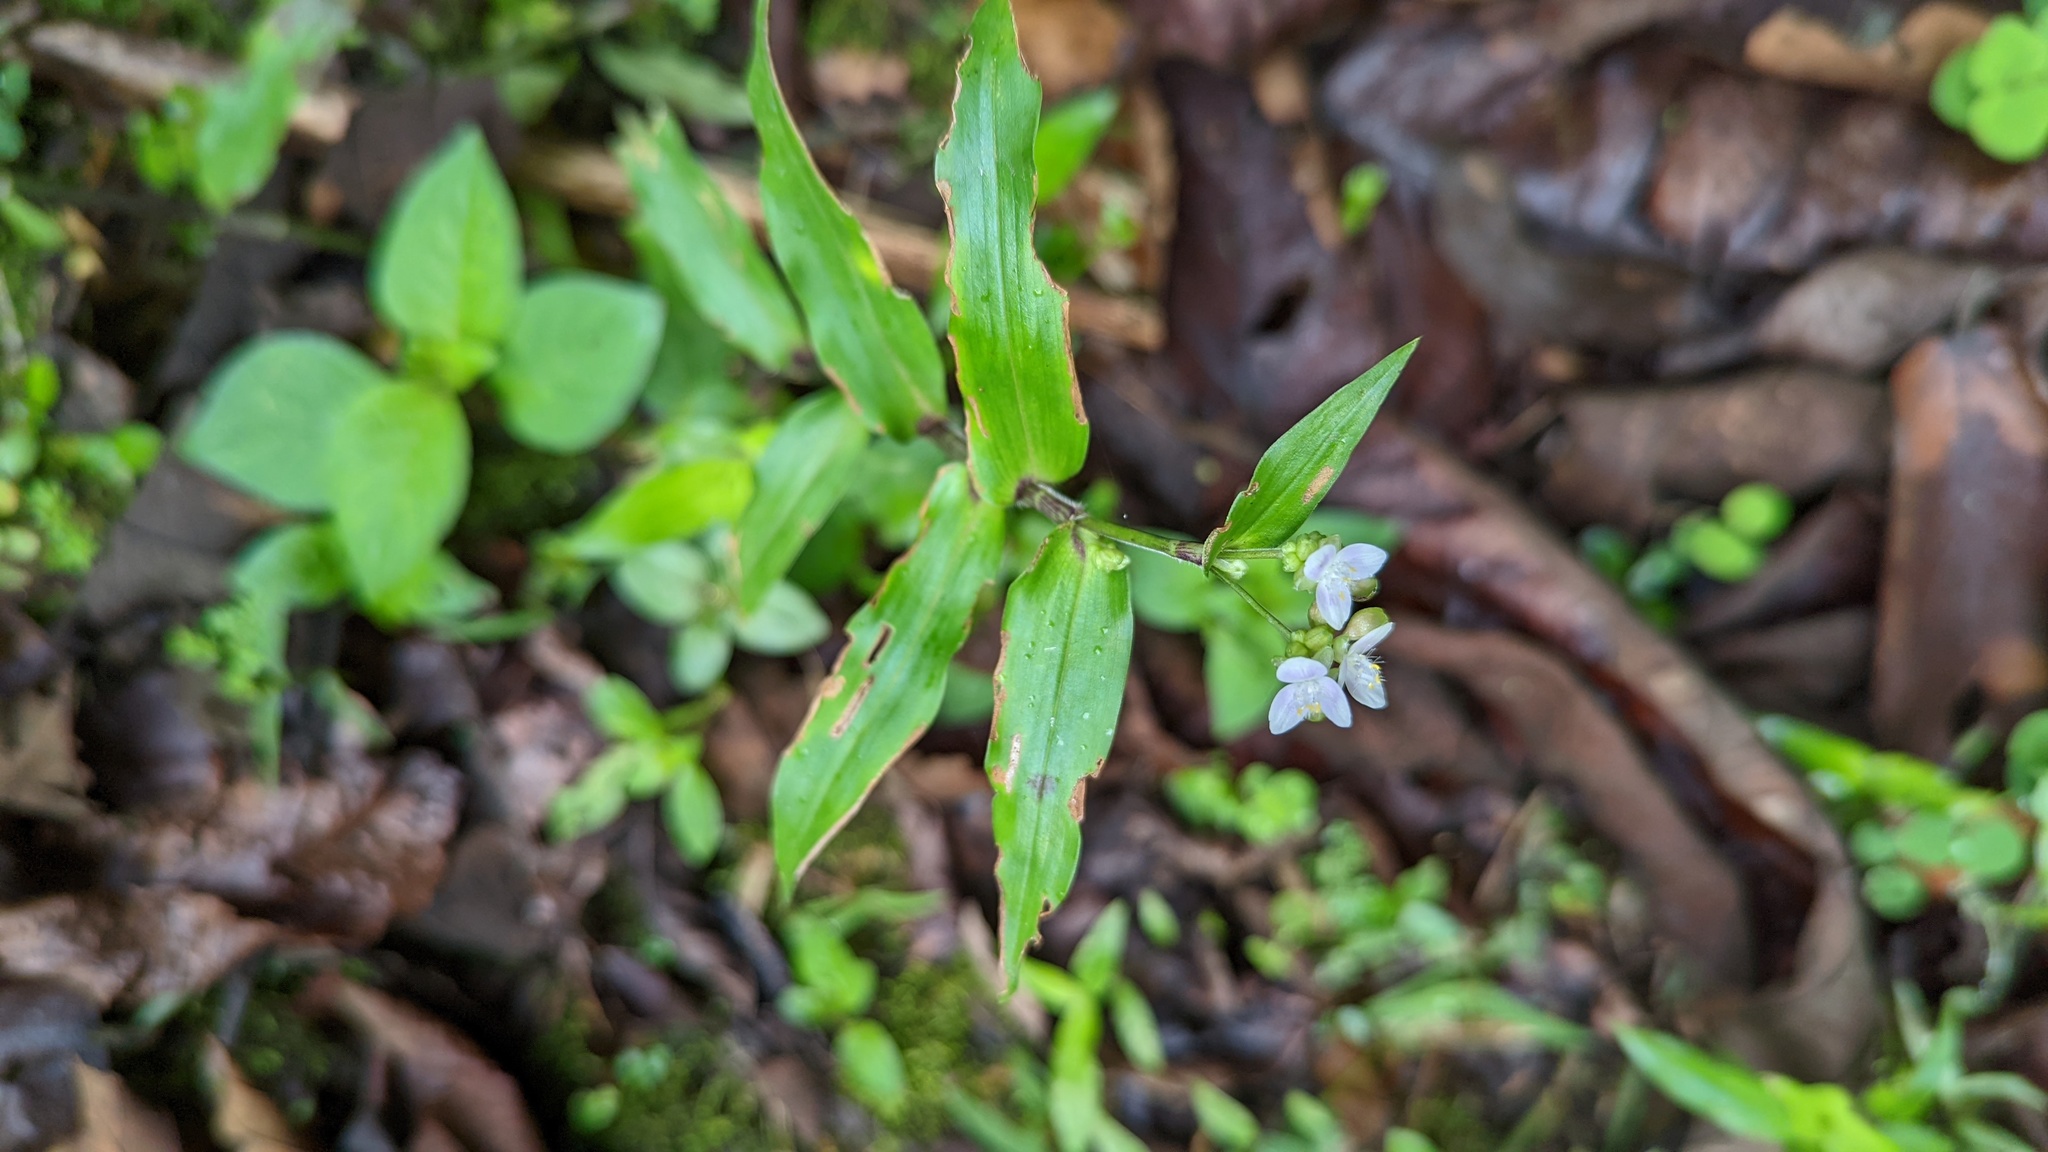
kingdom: Plantae
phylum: Tracheophyta
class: Liliopsida
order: Commelinales
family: Commelinaceae
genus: Callisia
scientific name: Callisia serrulata
